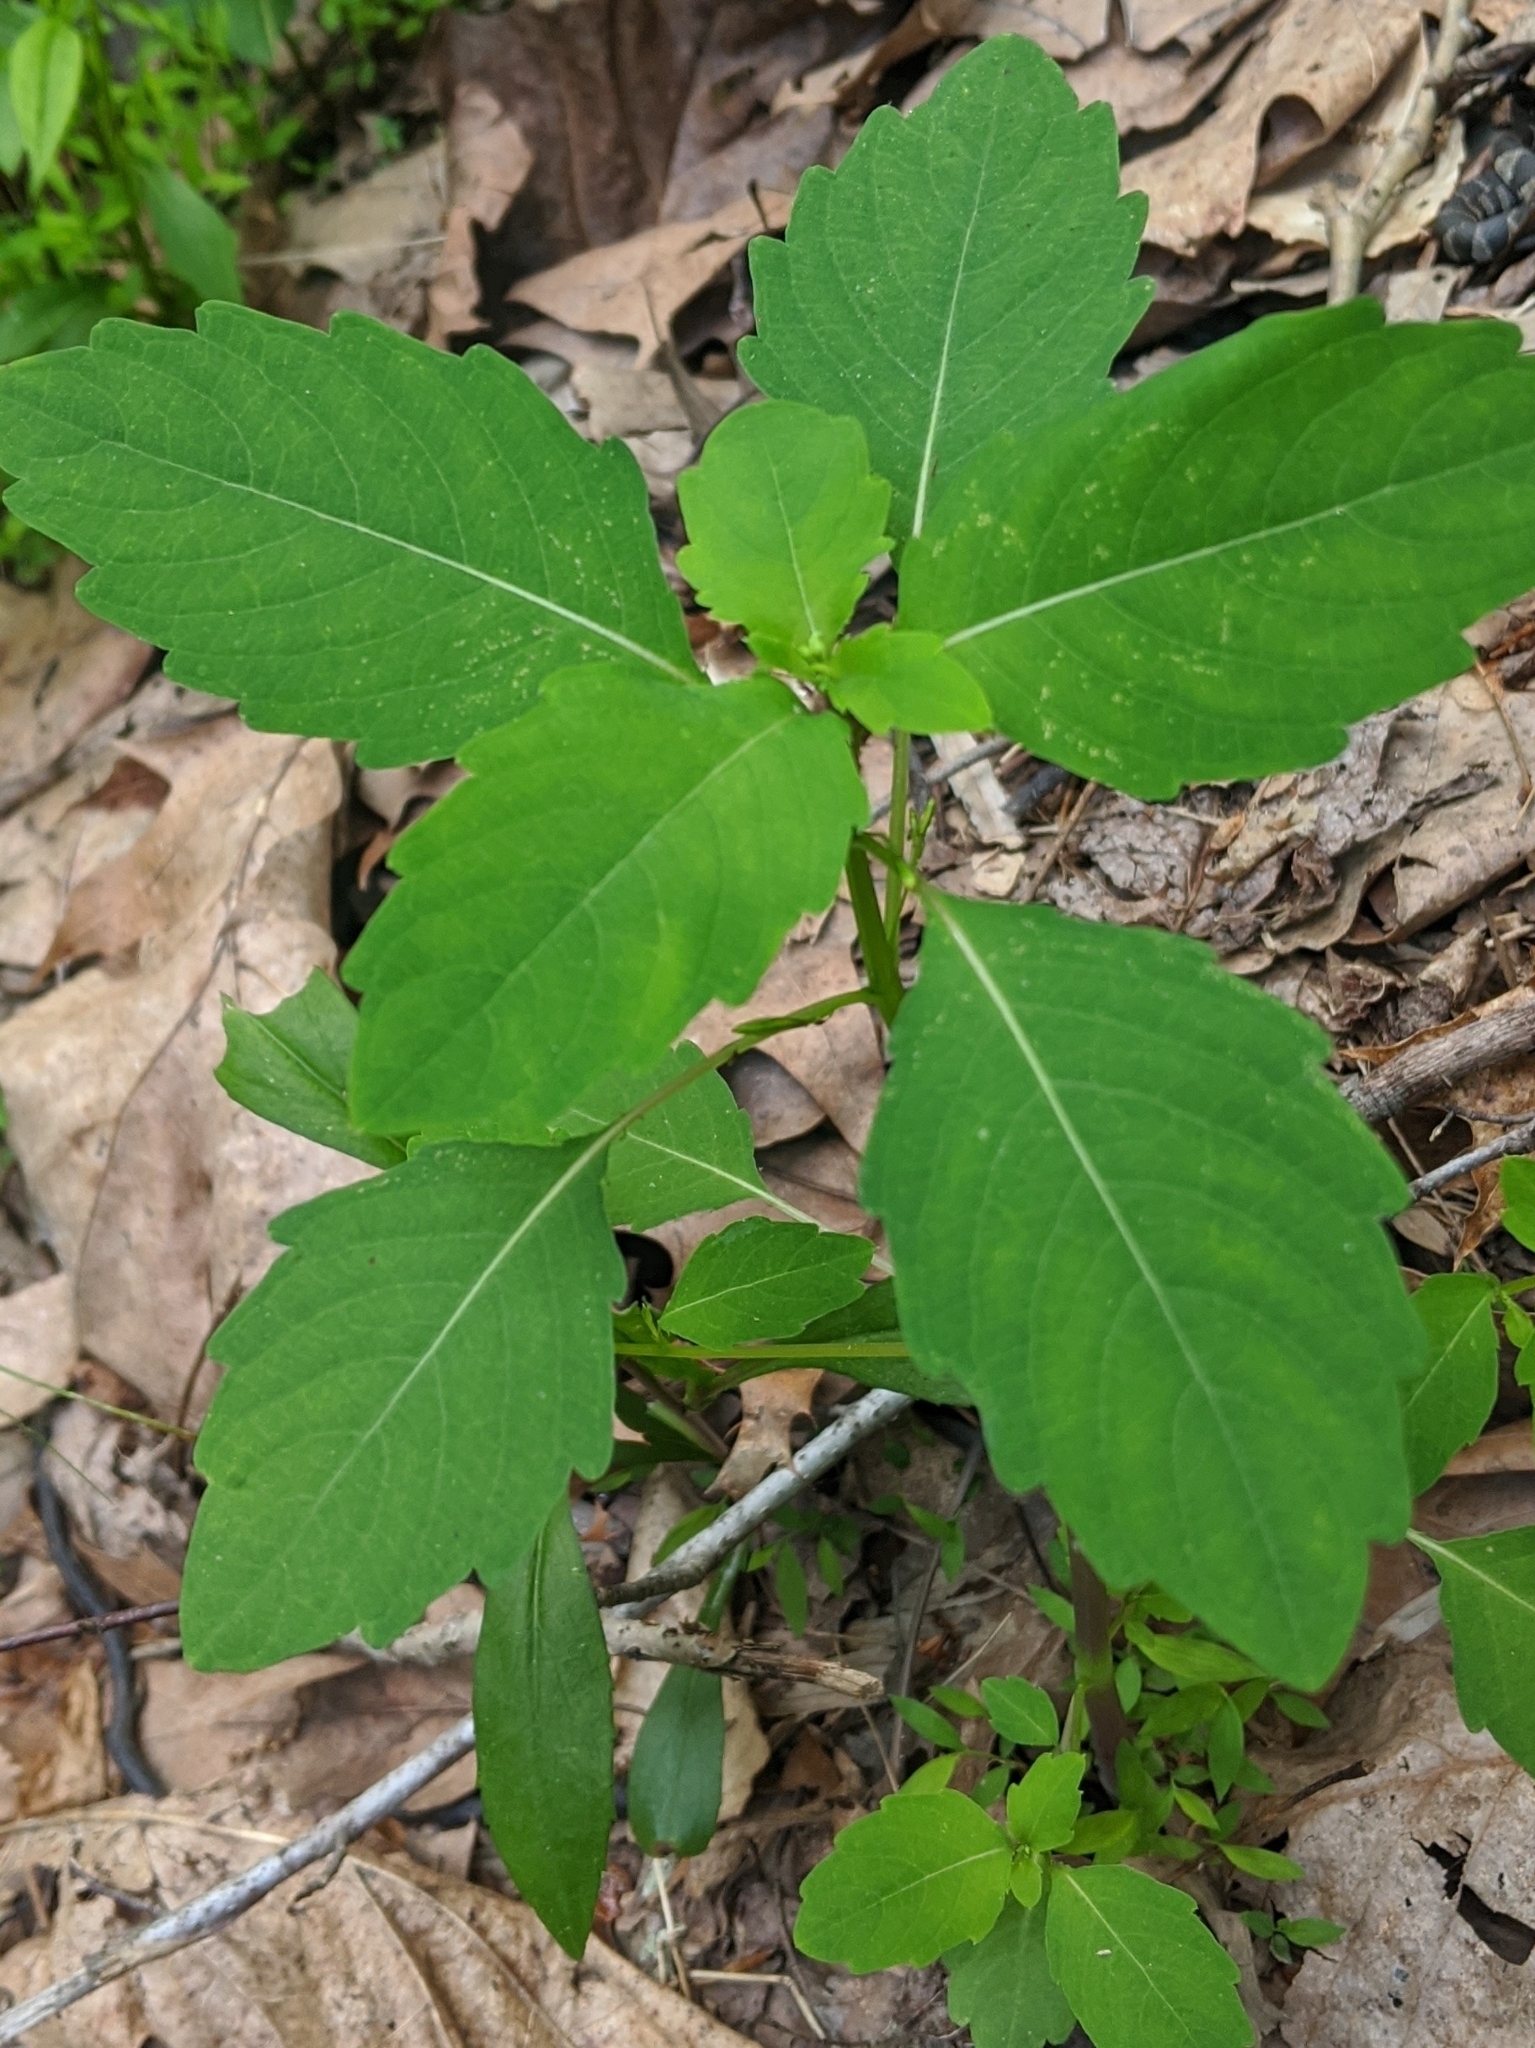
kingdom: Plantae
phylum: Tracheophyta
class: Magnoliopsida
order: Ericales
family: Balsaminaceae
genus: Impatiens
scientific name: Impatiens capensis
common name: Orange balsam
